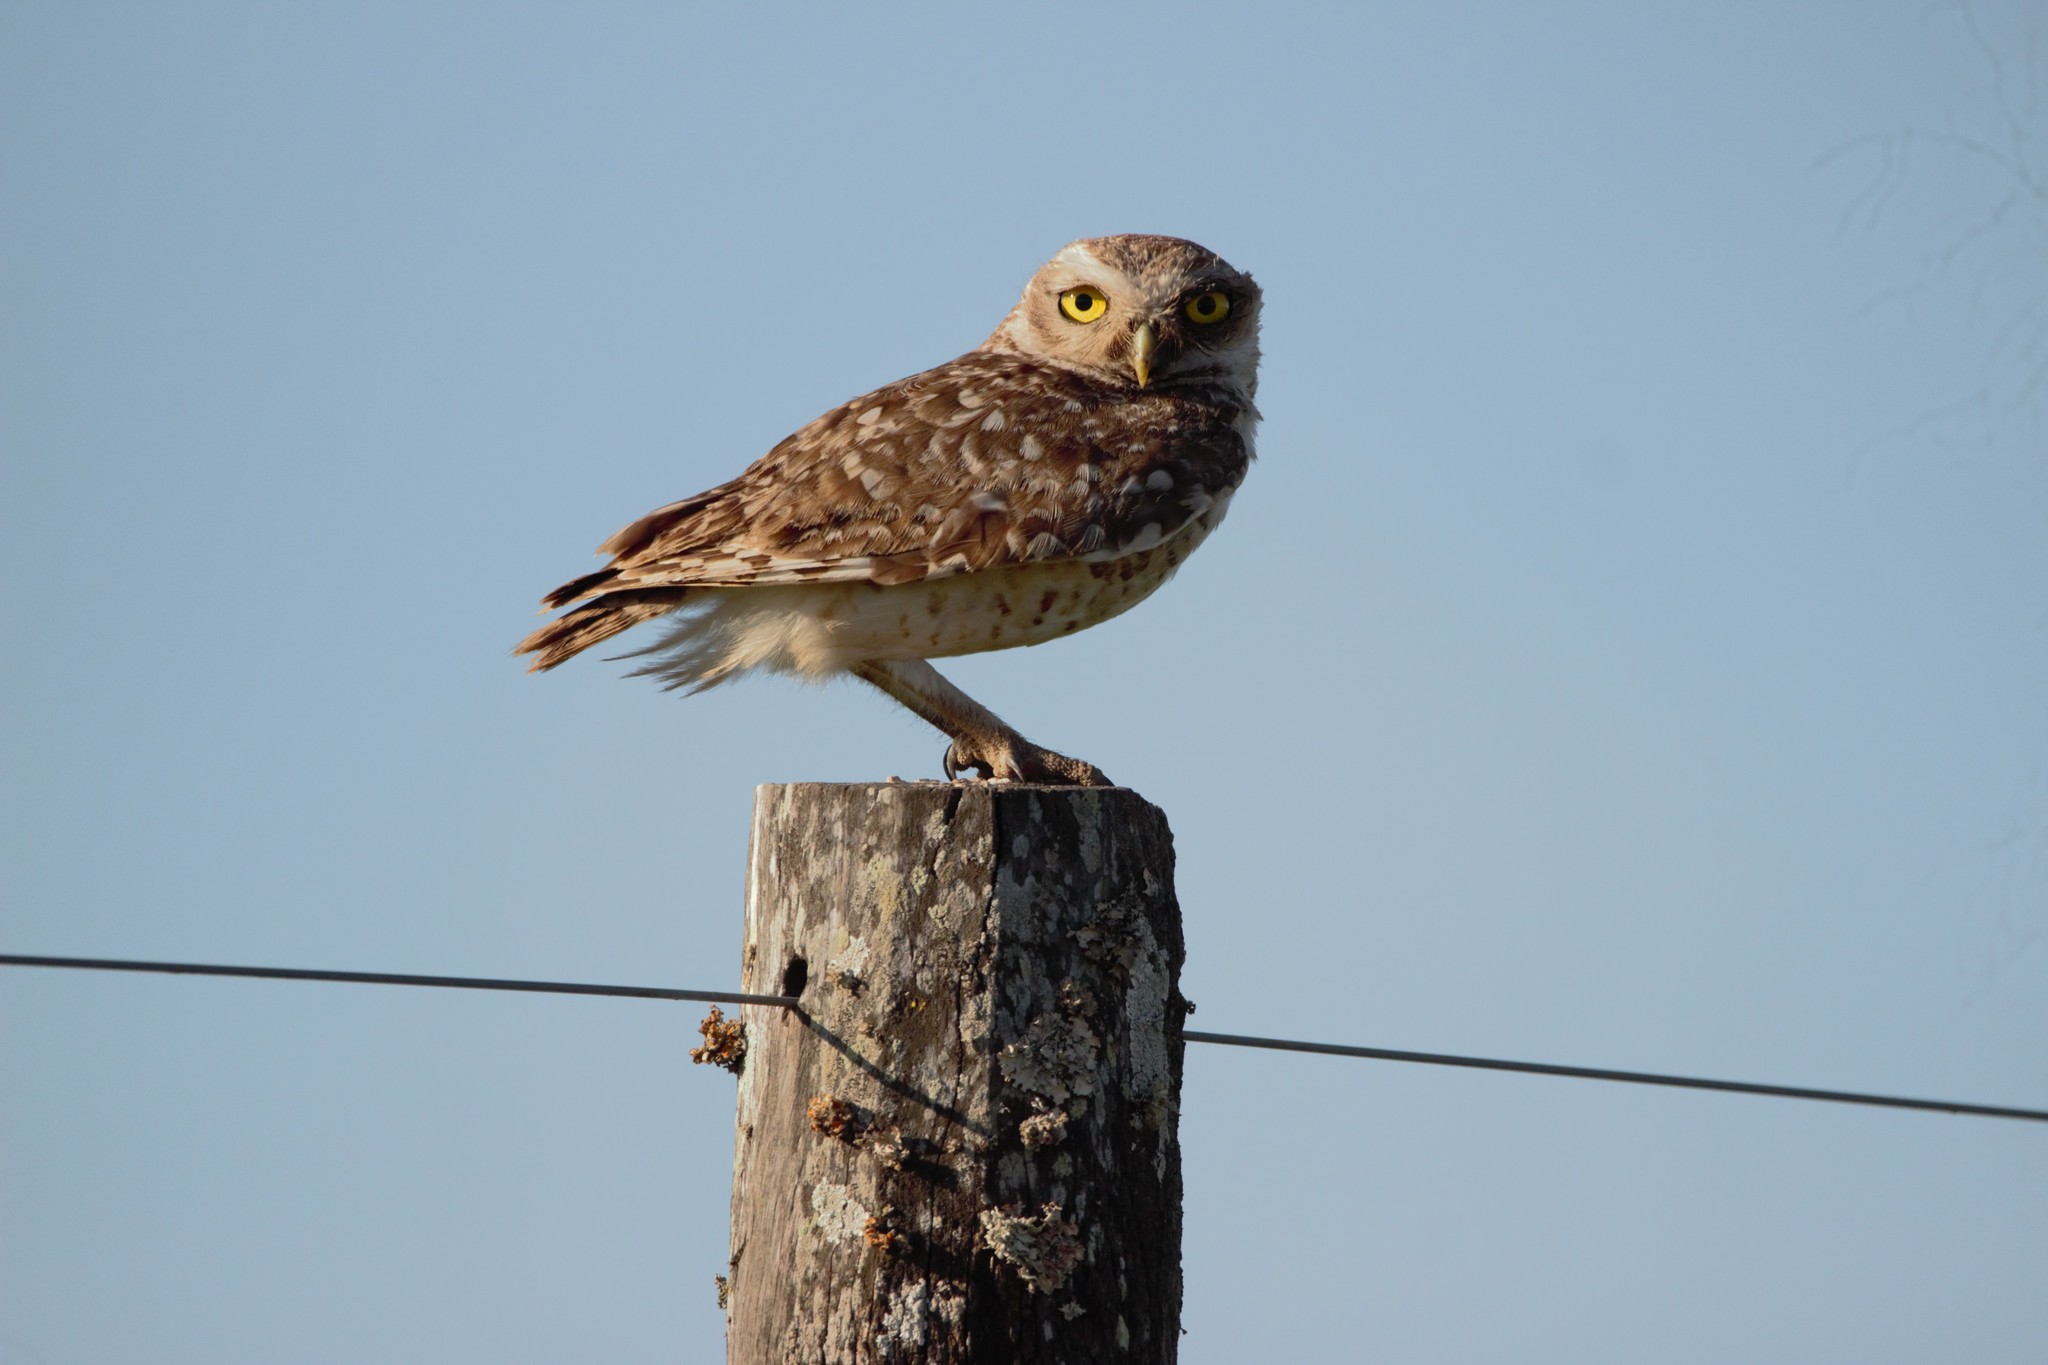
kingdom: Animalia
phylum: Chordata
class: Aves
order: Strigiformes
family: Strigidae
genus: Athene
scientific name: Athene cunicularia
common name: Burrowing owl
